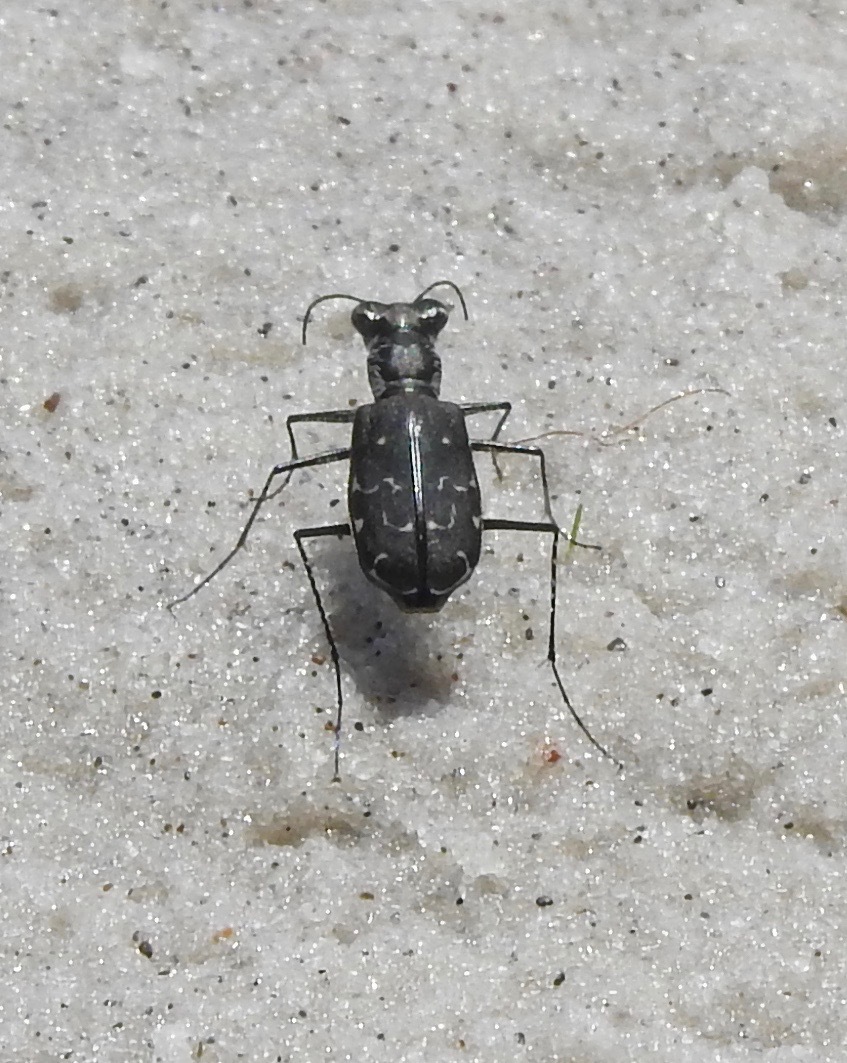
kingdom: Animalia
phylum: Arthropoda
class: Insecta
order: Coleoptera
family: Carabidae
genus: Cicindela
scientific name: Cicindela trifasciata
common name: Mudflat tiger beetle
